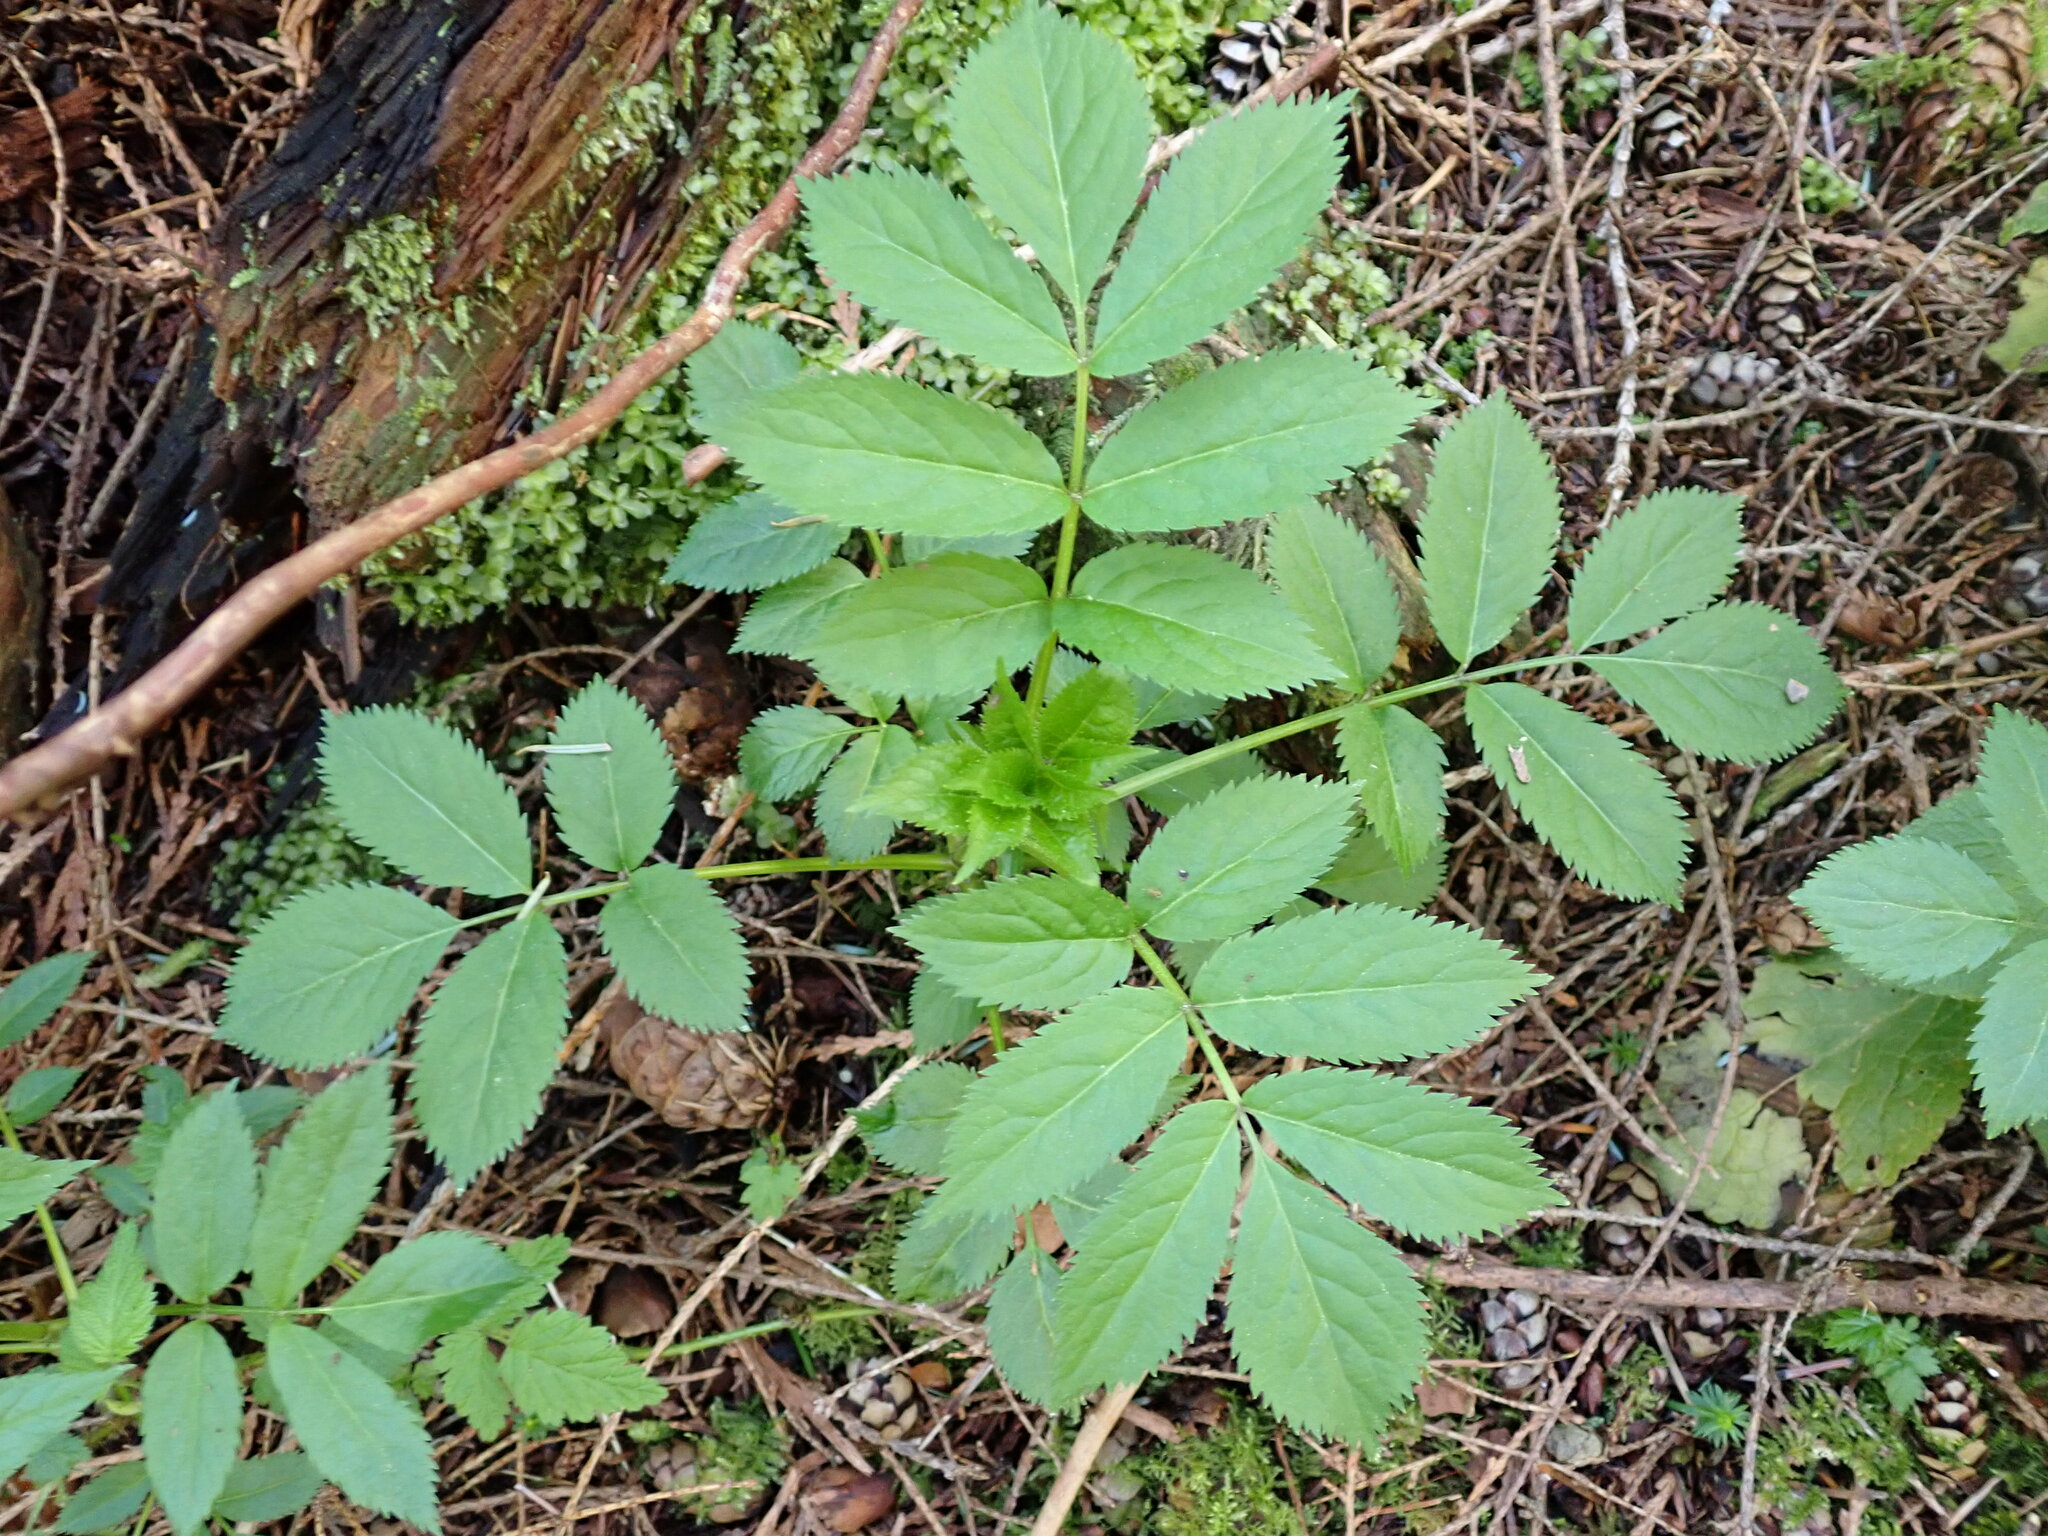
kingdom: Plantae
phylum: Tracheophyta
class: Magnoliopsida
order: Dipsacales
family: Viburnaceae
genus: Sambucus
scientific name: Sambucus racemosa
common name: Red-berried elder
